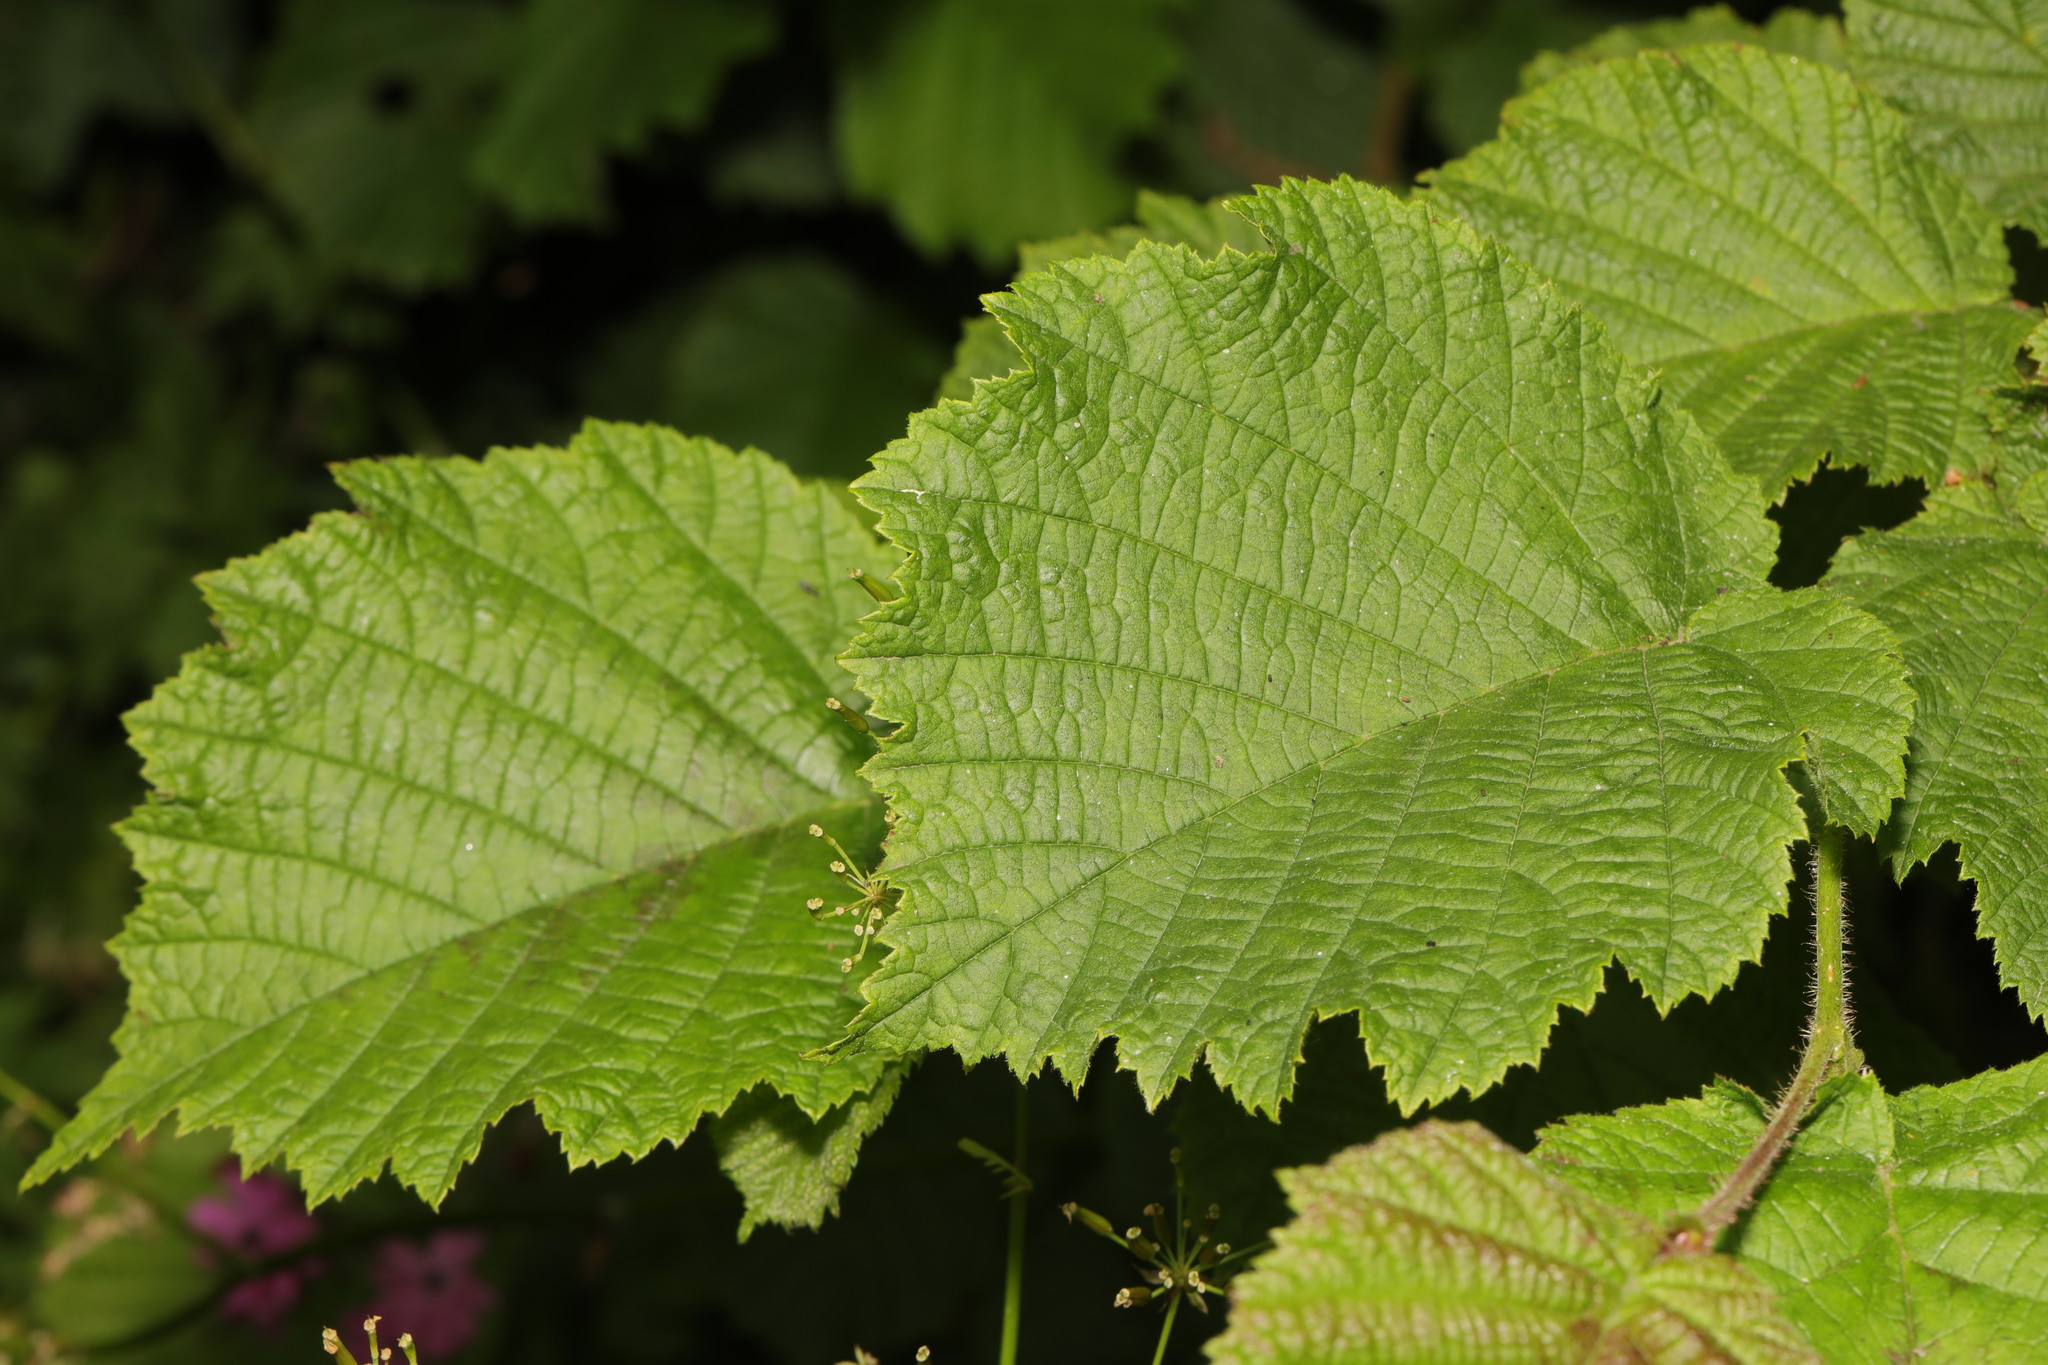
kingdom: Plantae
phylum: Tracheophyta
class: Magnoliopsida
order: Fagales
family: Betulaceae
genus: Corylus
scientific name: Corylus avellana
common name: European hazel
